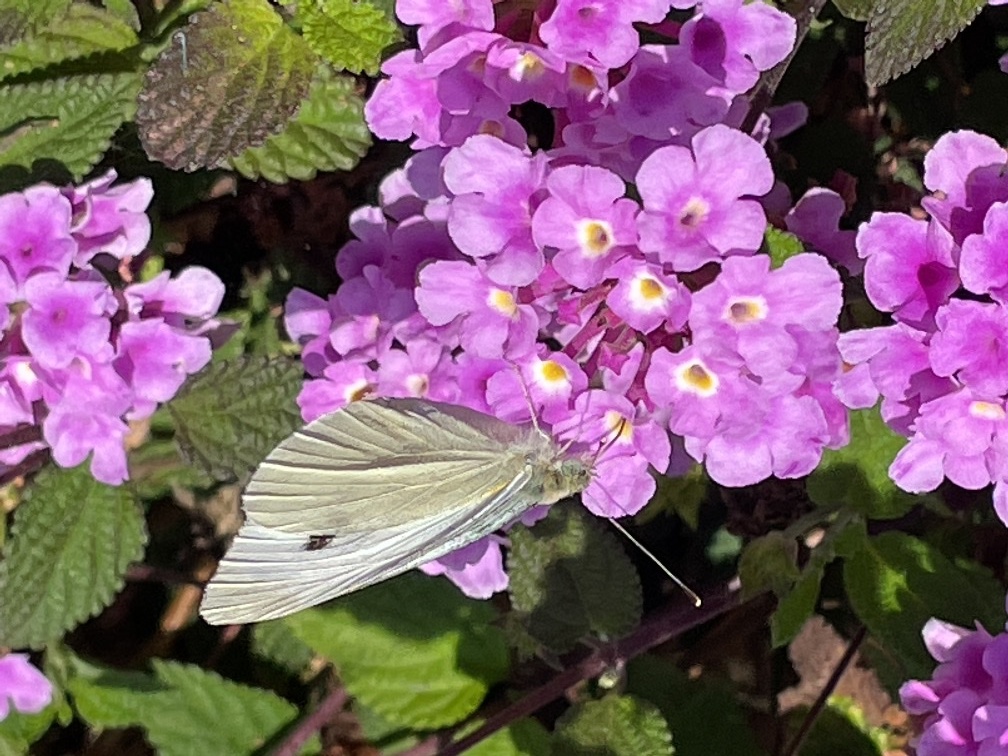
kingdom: Animalia
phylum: Arthropoda
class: Insecta
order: Lepidoptera
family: Pieridae
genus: Pieris
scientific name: Pieris rapae
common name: Small white
